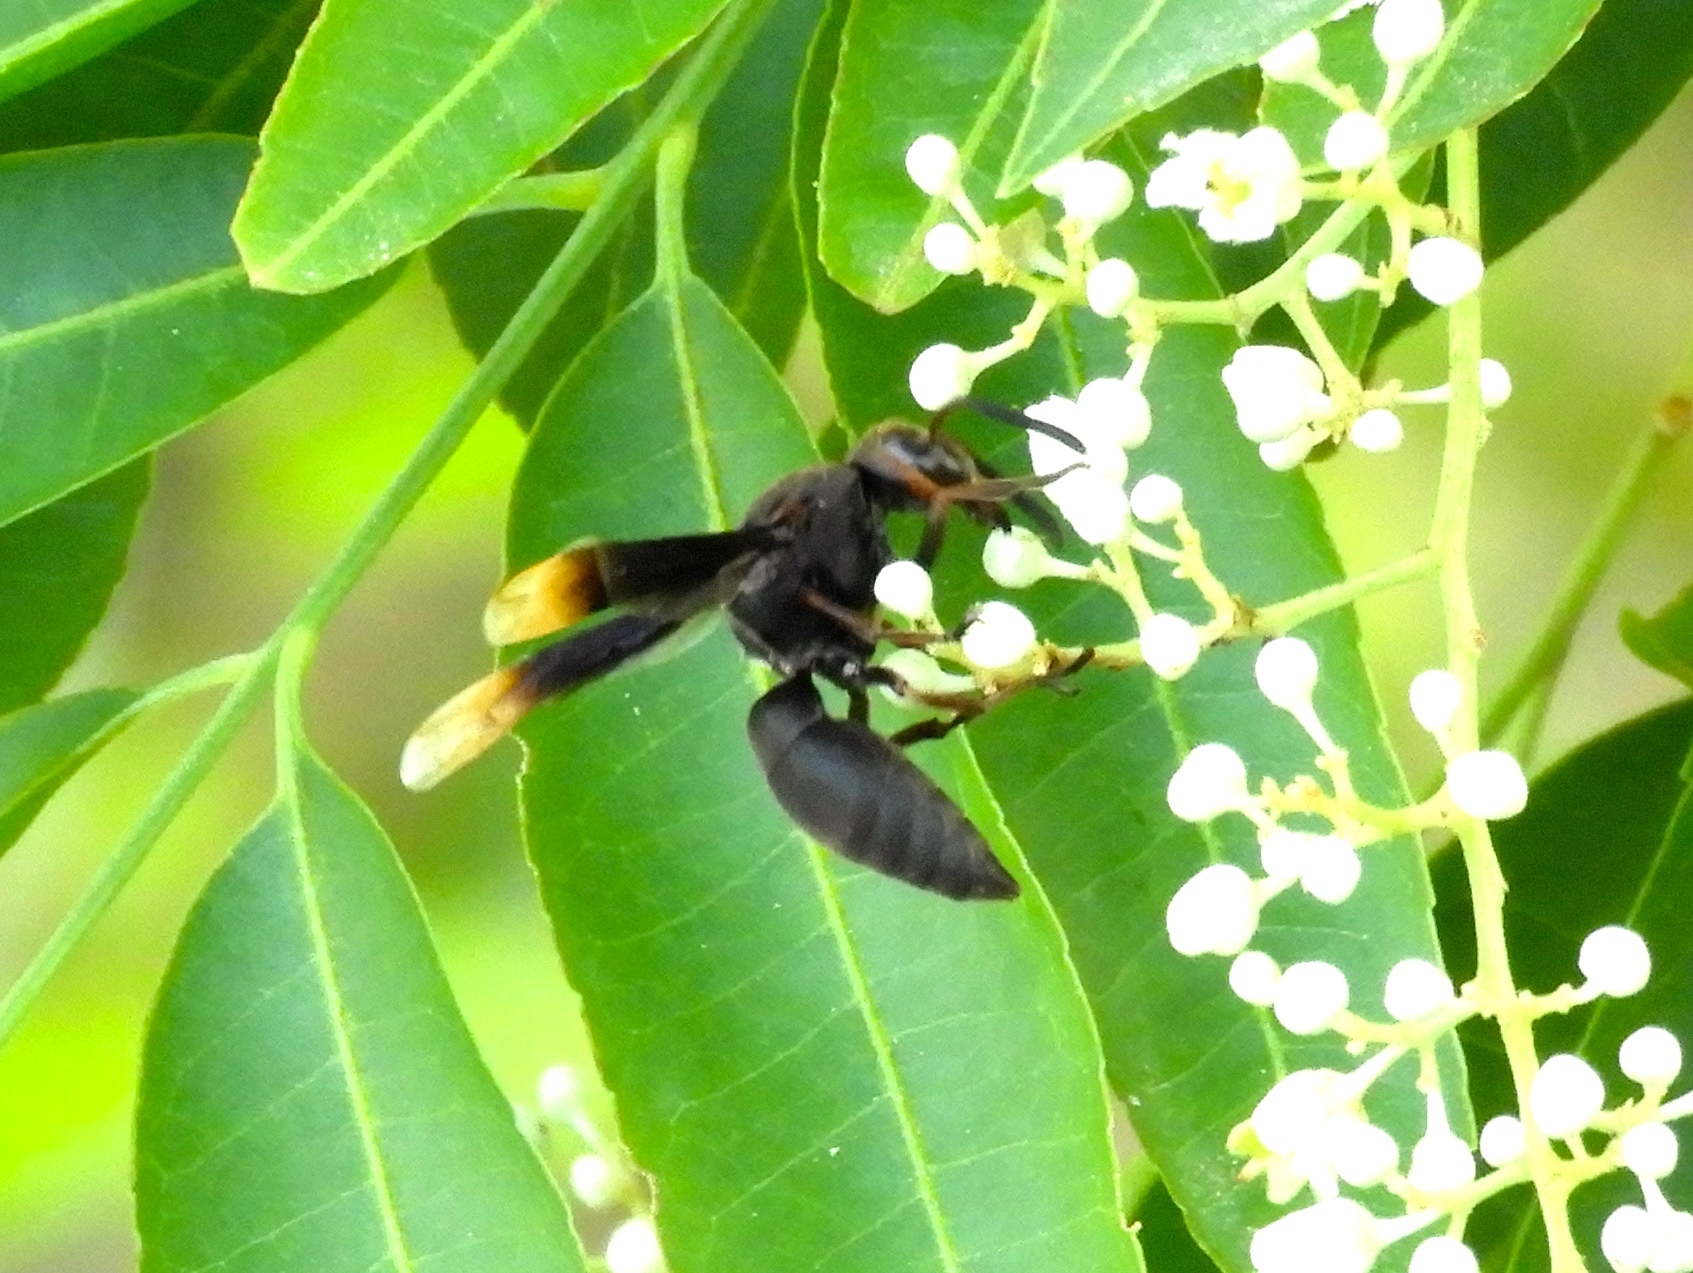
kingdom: Animalia
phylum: Arthropoda
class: Insecta
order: Hymenoptera
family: Vespidae
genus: Parachartergus
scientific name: Parachartergus
